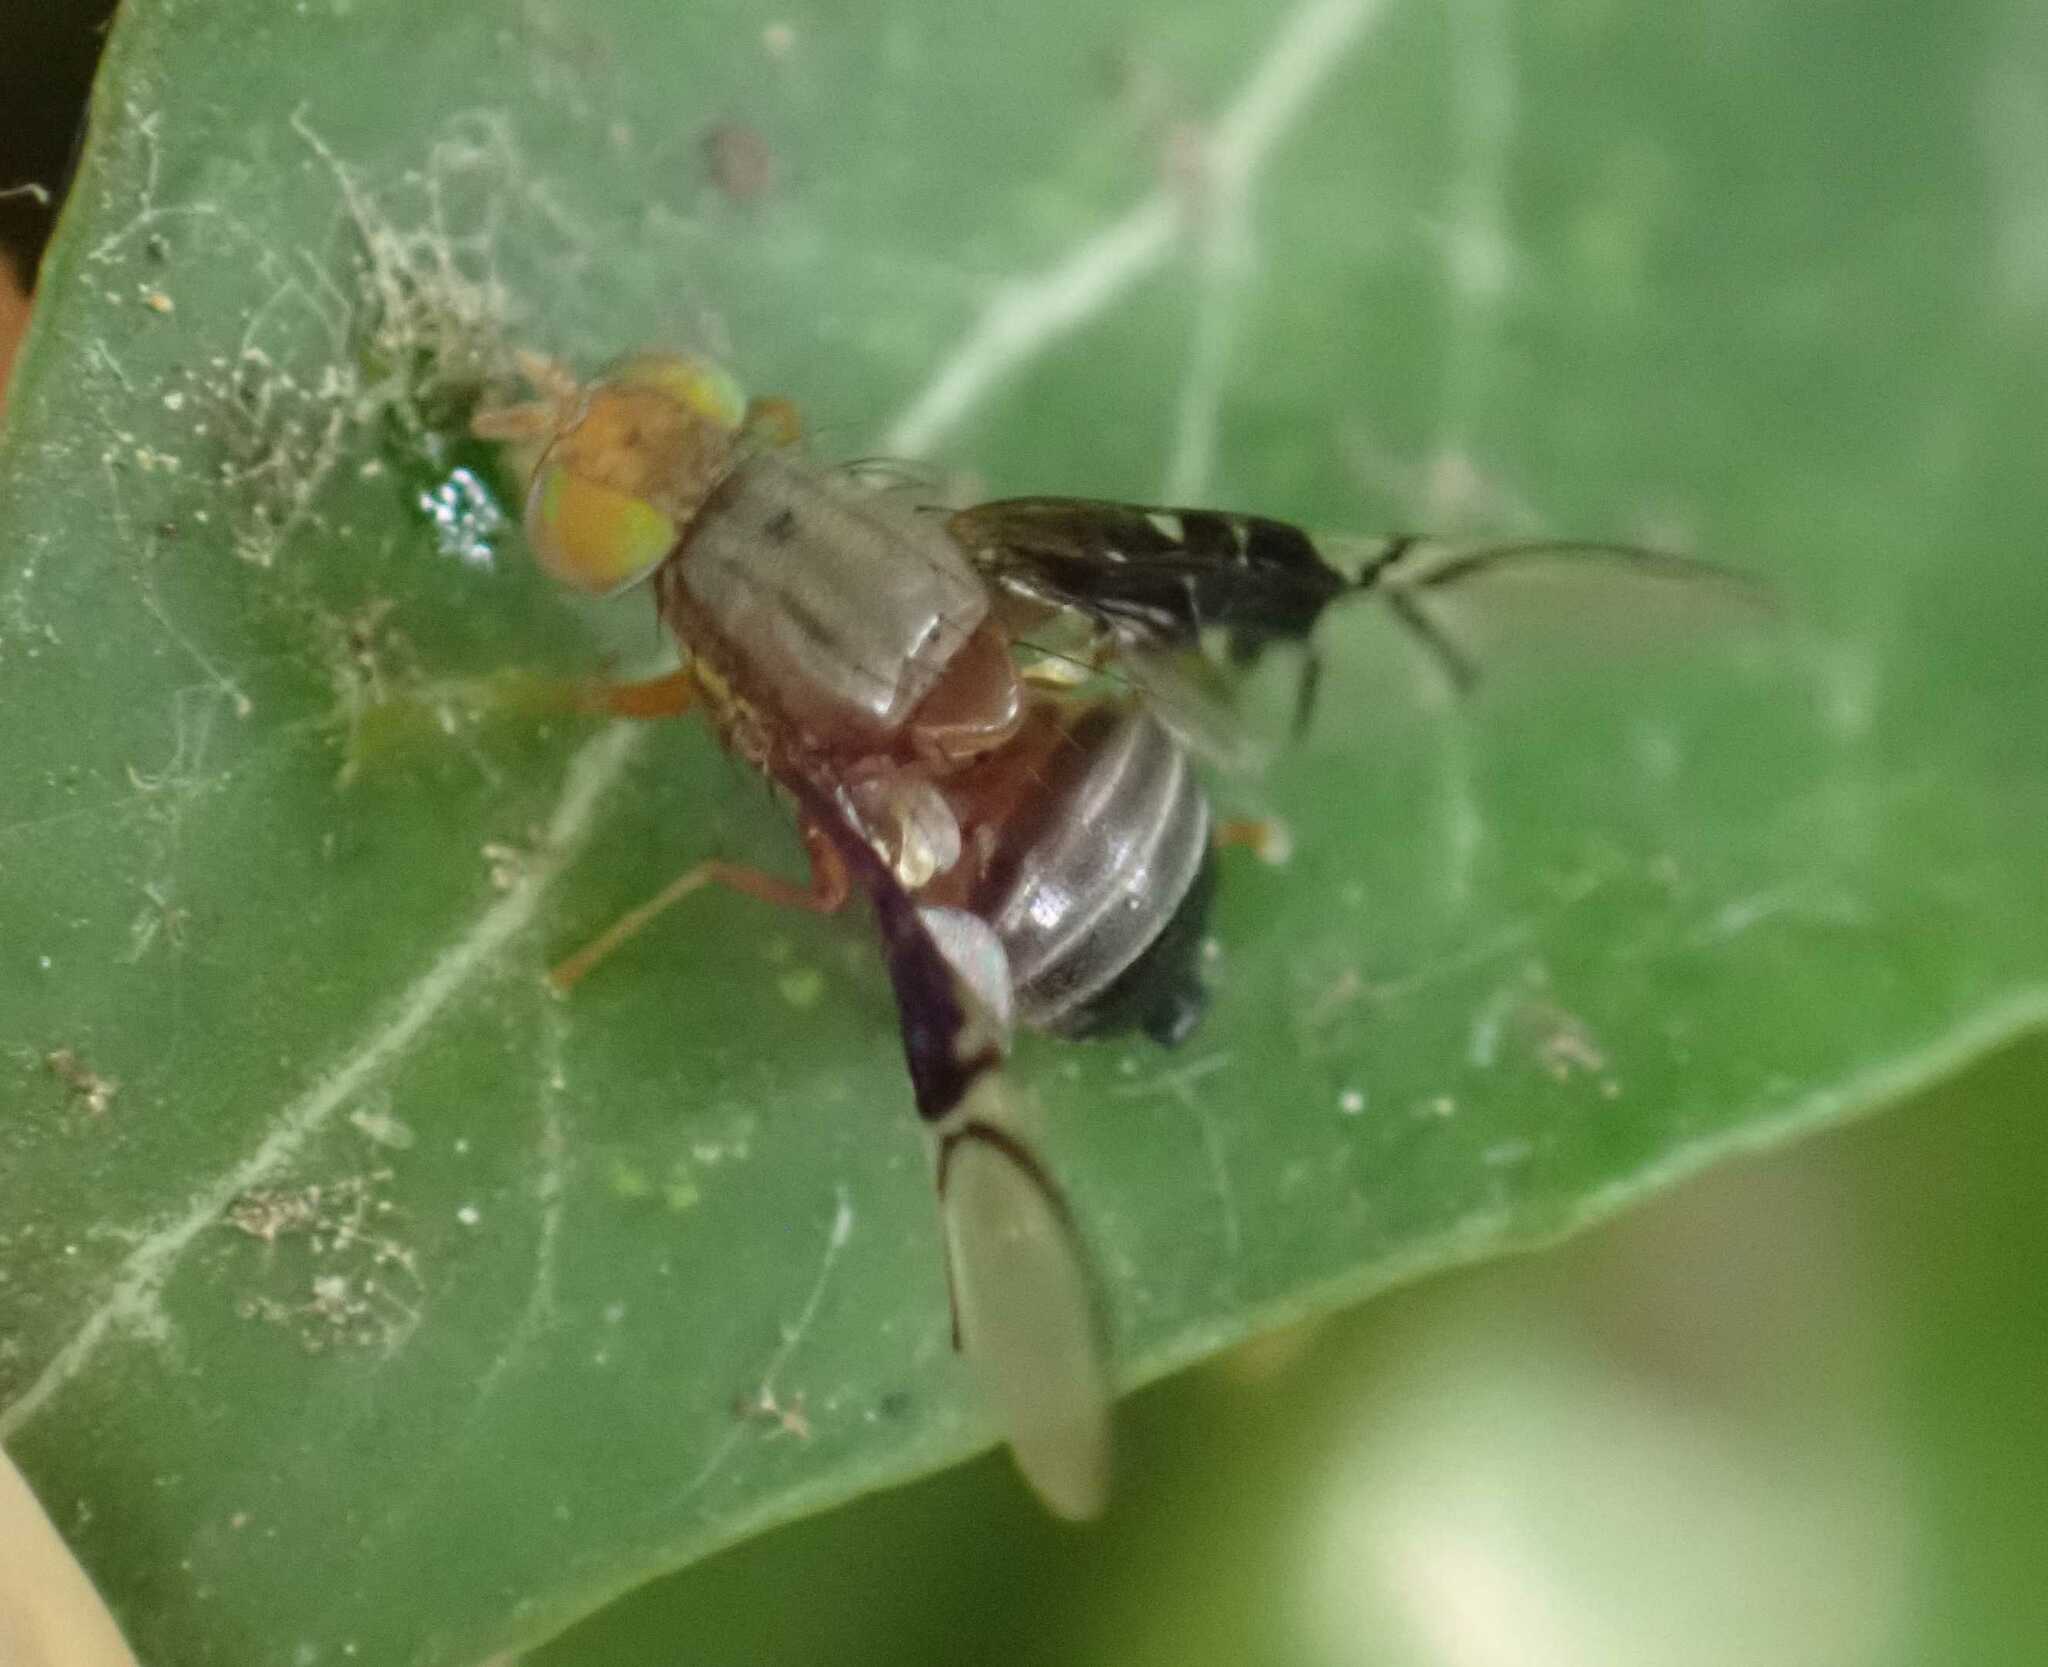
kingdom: Animalia
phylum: Arthropoda
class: Insecta
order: Diptera
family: Tephritidae
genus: Anomoia
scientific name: Anomoia purmunda
